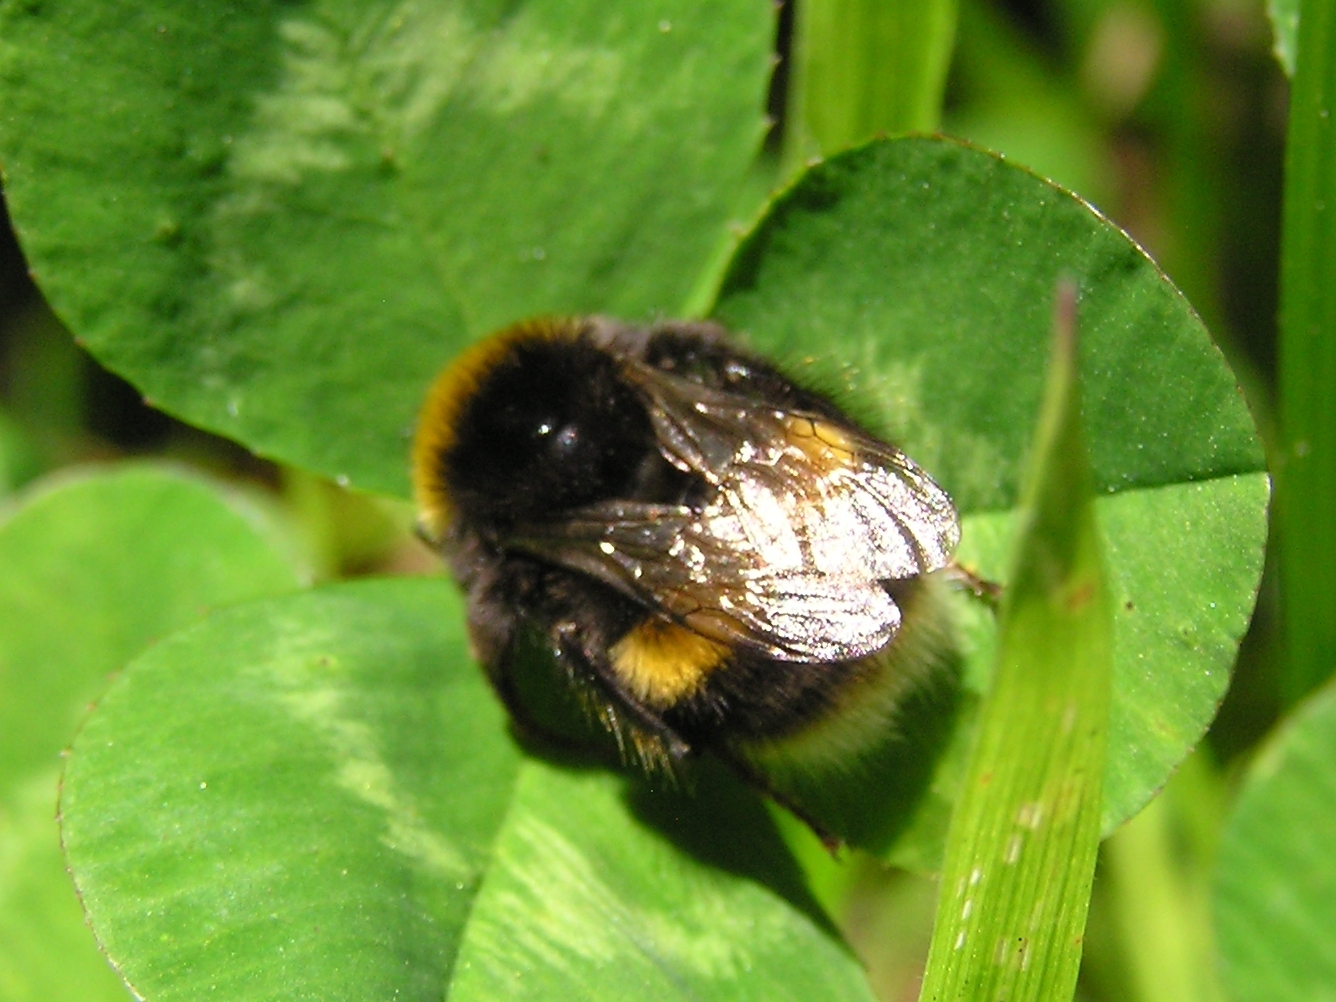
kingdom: Animalia
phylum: Arthropoda
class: Insecta
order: Hymenoptera
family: Apidae
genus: Bombus
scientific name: Bombus terrestris
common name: Buff-tailed bumblebee
